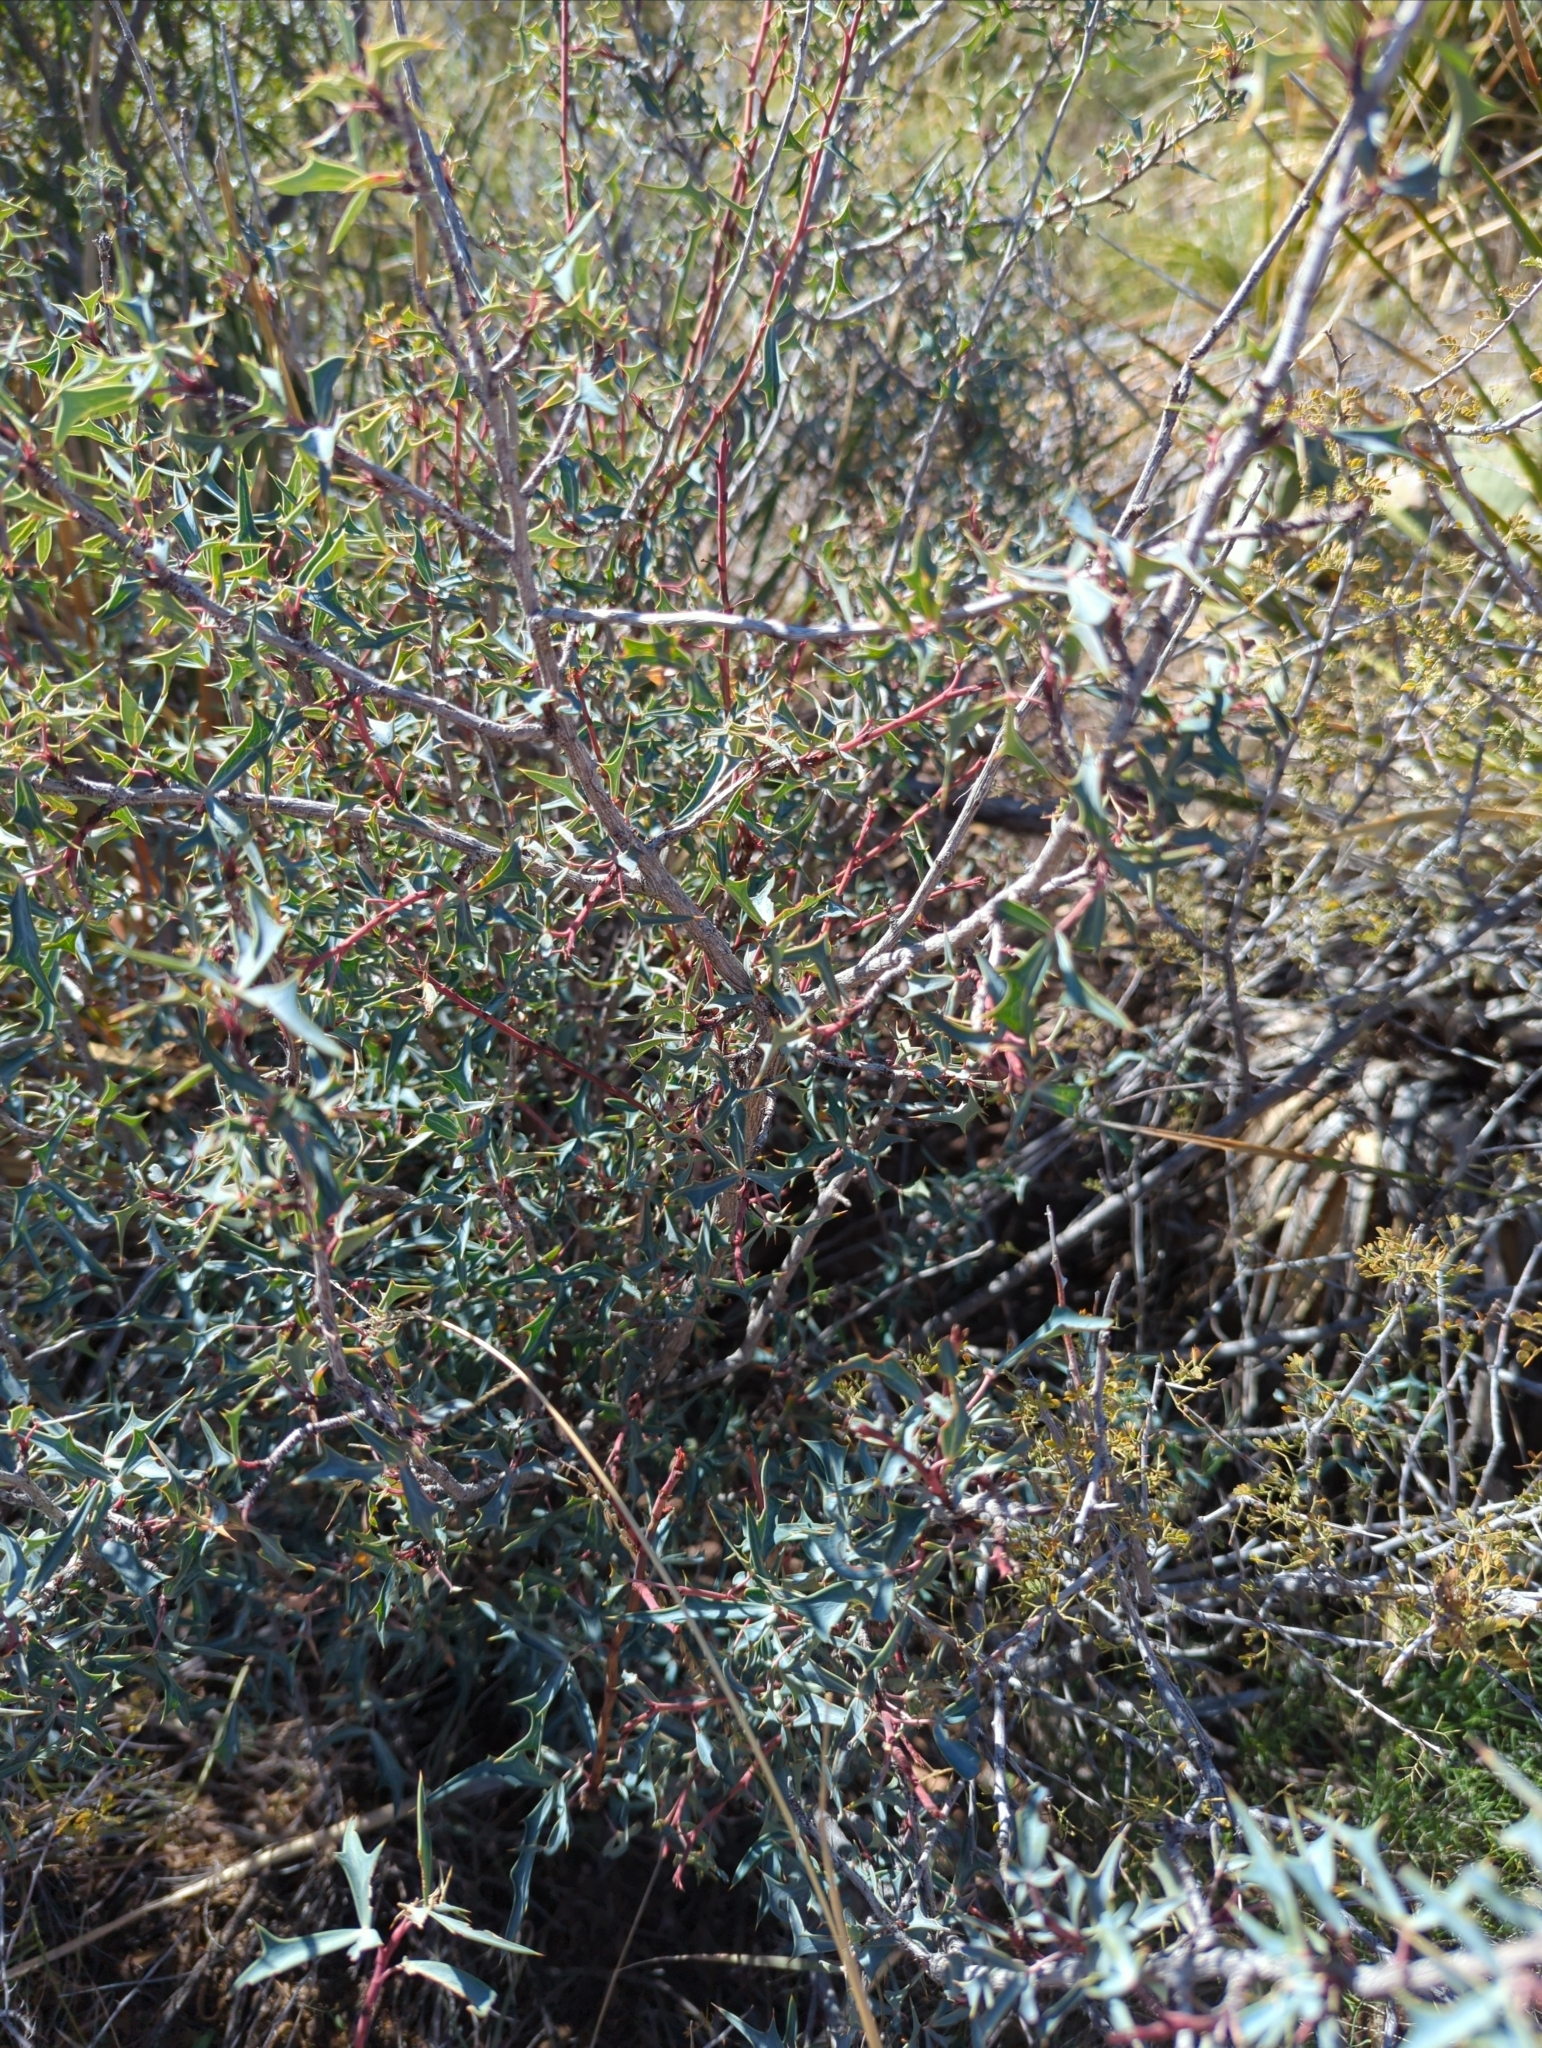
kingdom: Plantae
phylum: Tracheophyta
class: Magnoliopsida
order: Ranunculales
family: Berberidaceae
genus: Alloberberis
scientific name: Alloberberis trifoliolata
